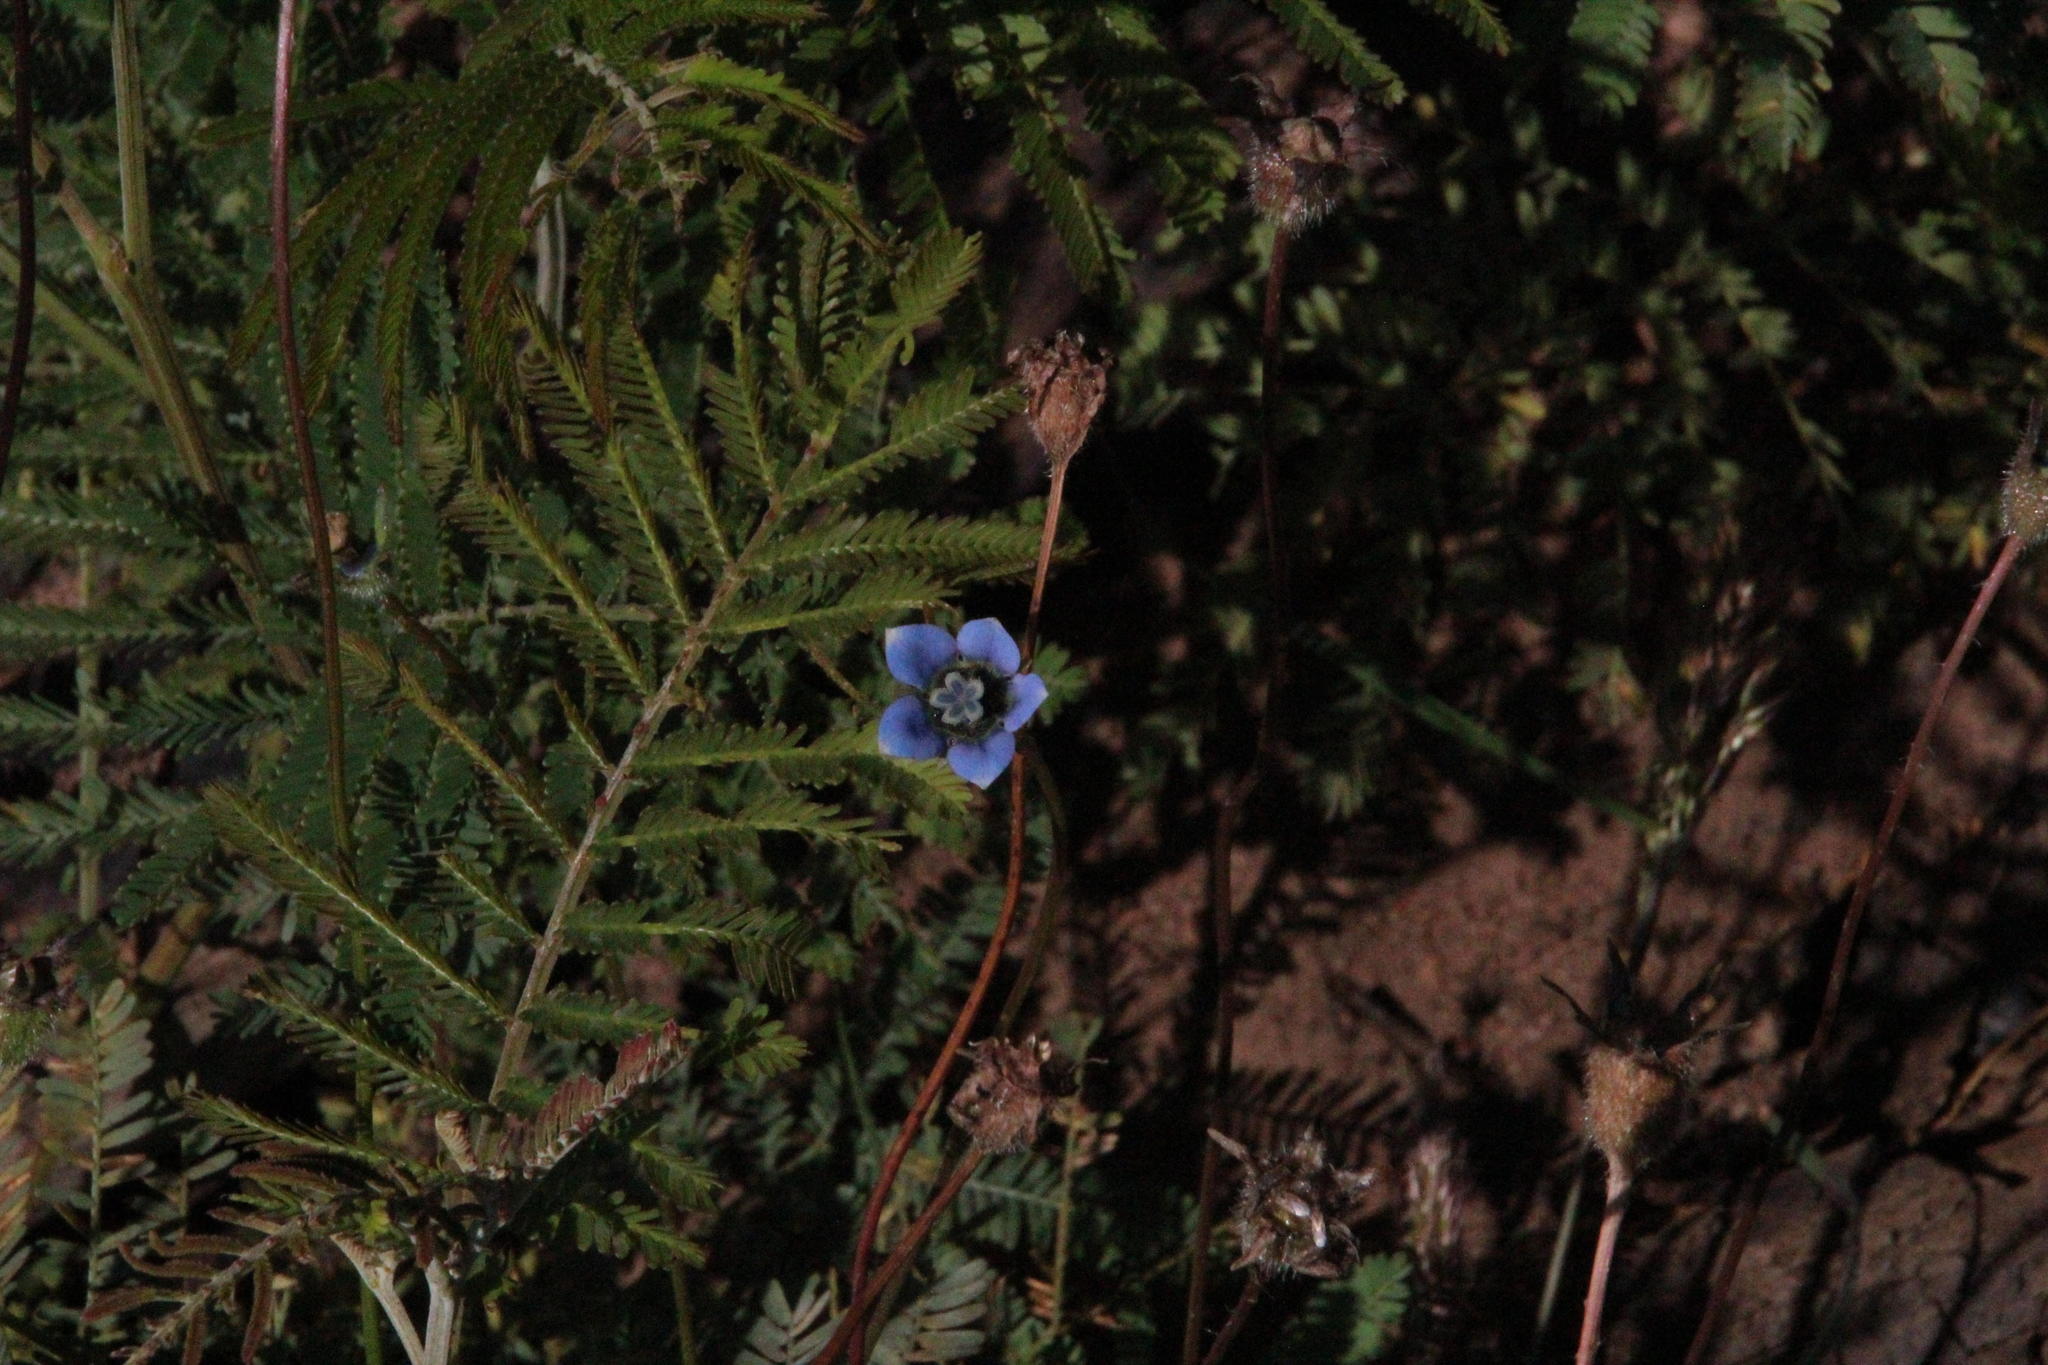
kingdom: Plantae
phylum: Tracheophyta
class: Magnoliopsida
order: Asterales
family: Campanulaceae
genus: Wahlenbergia
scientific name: Wahlenbergia capensis
